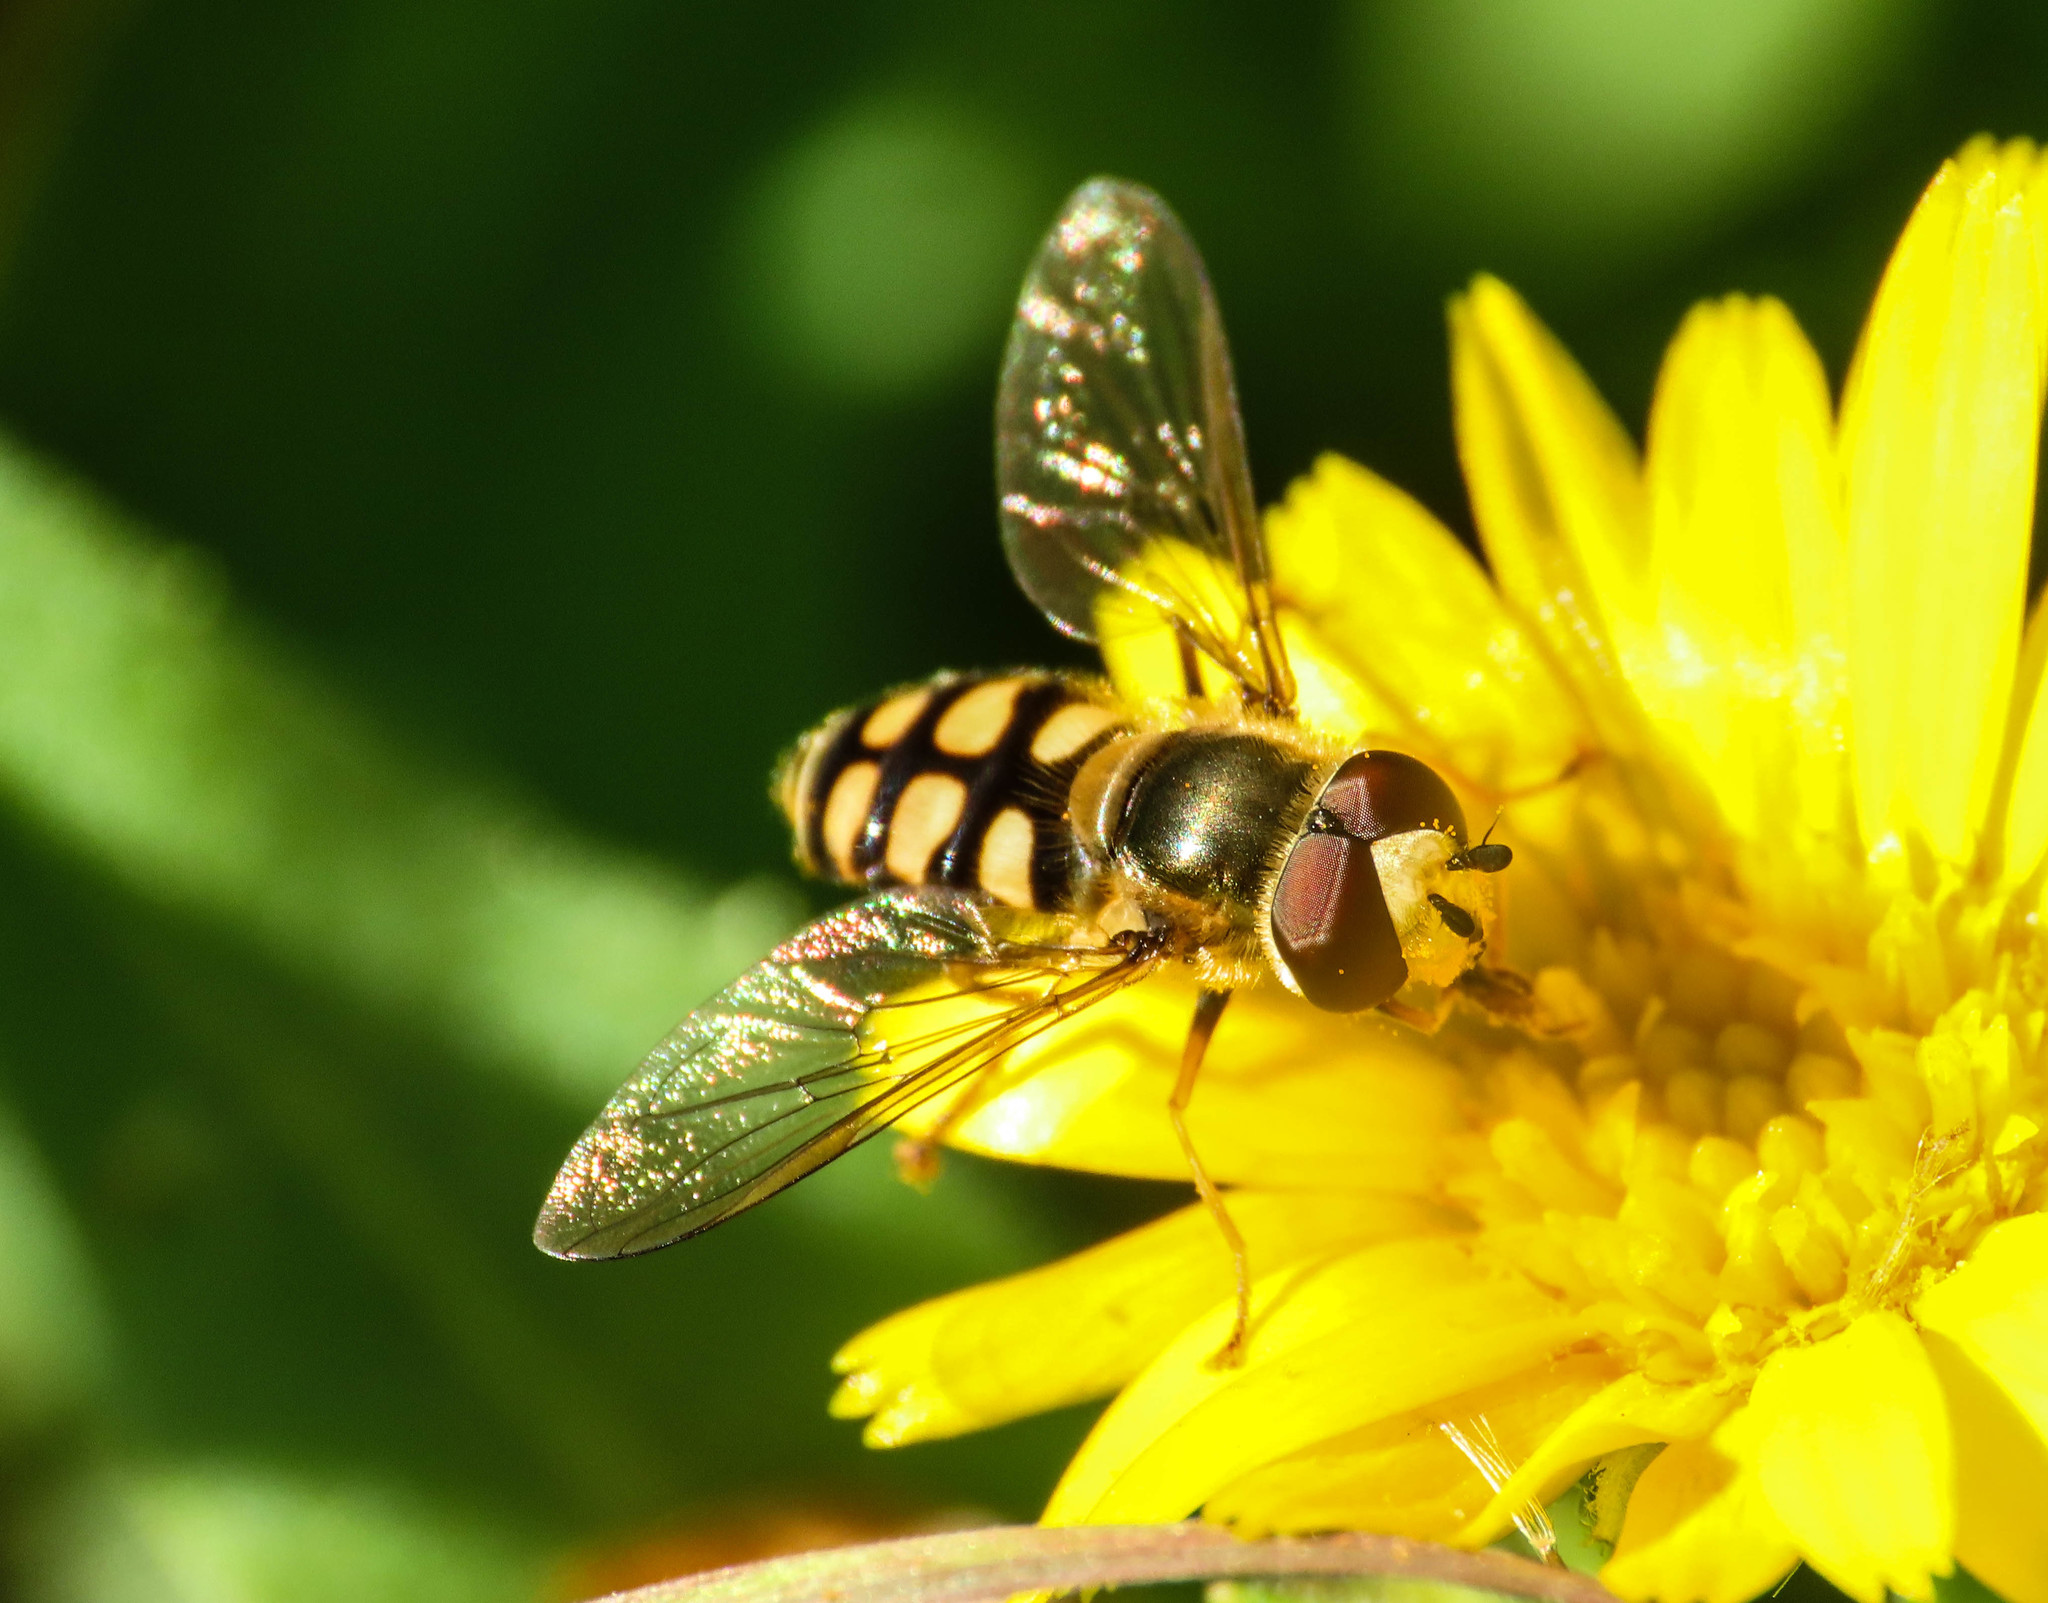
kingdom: Animalia
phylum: Arthropoda
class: Insecta
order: Diptera
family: Syrphidae
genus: Eupeodes
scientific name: Eupeodes corollae
